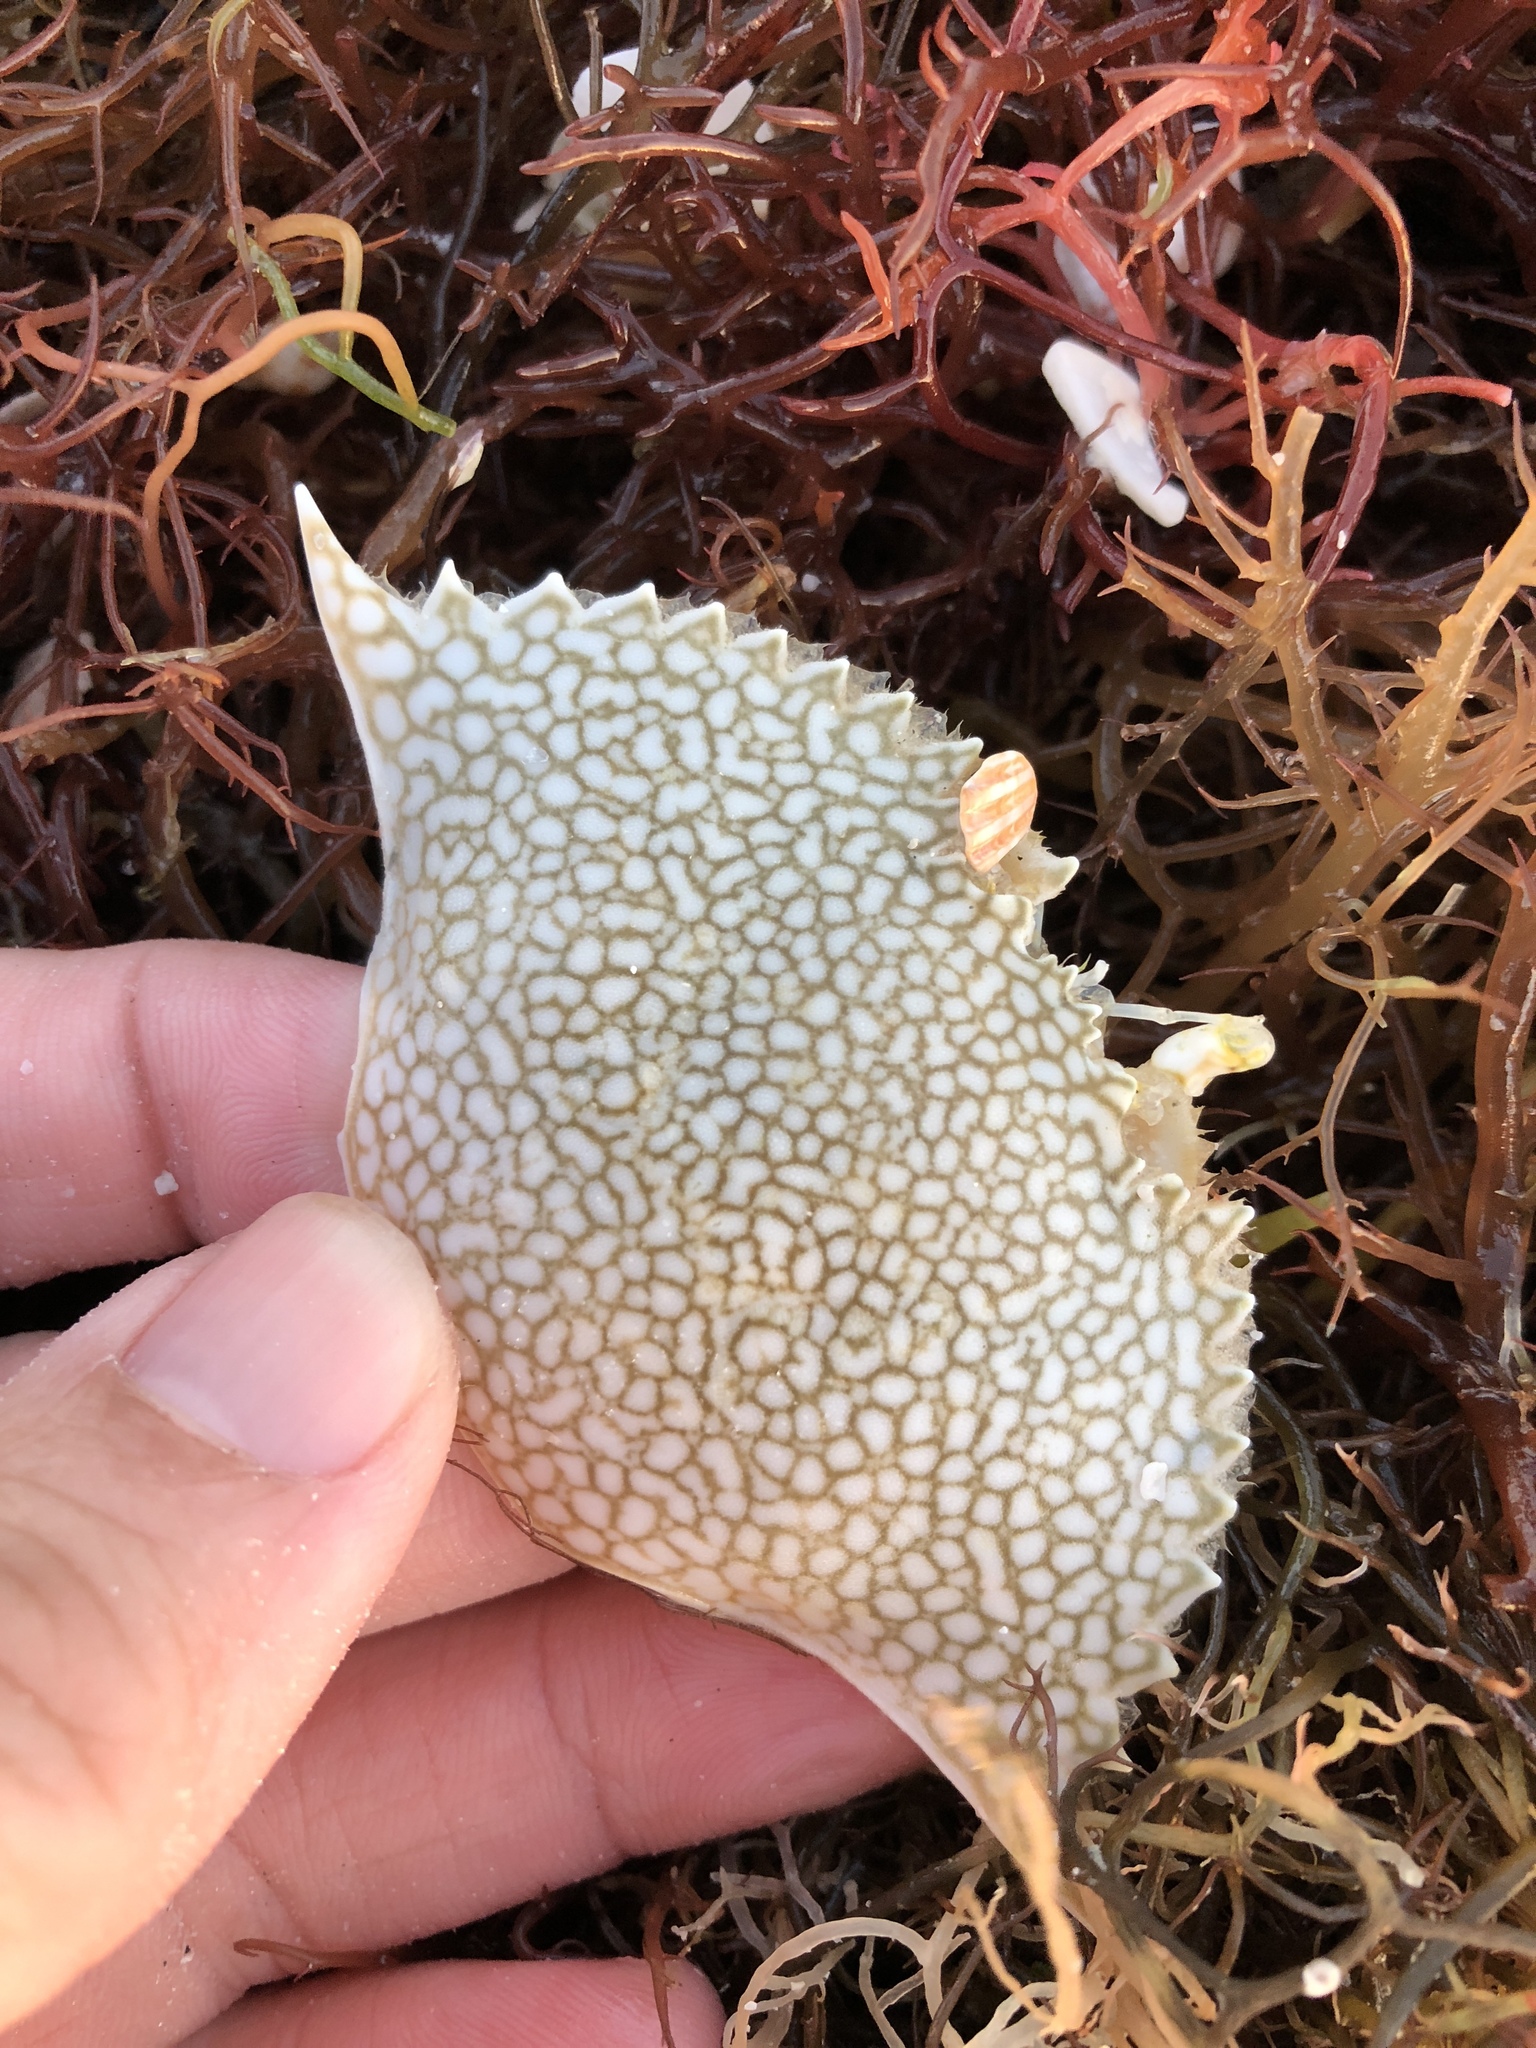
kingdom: Animalia
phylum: Arthropoda
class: Malacostraca
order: Decapoda
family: Portunidae
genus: Arenaeus
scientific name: Arenaeus cribrarius
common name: Speckled crab
